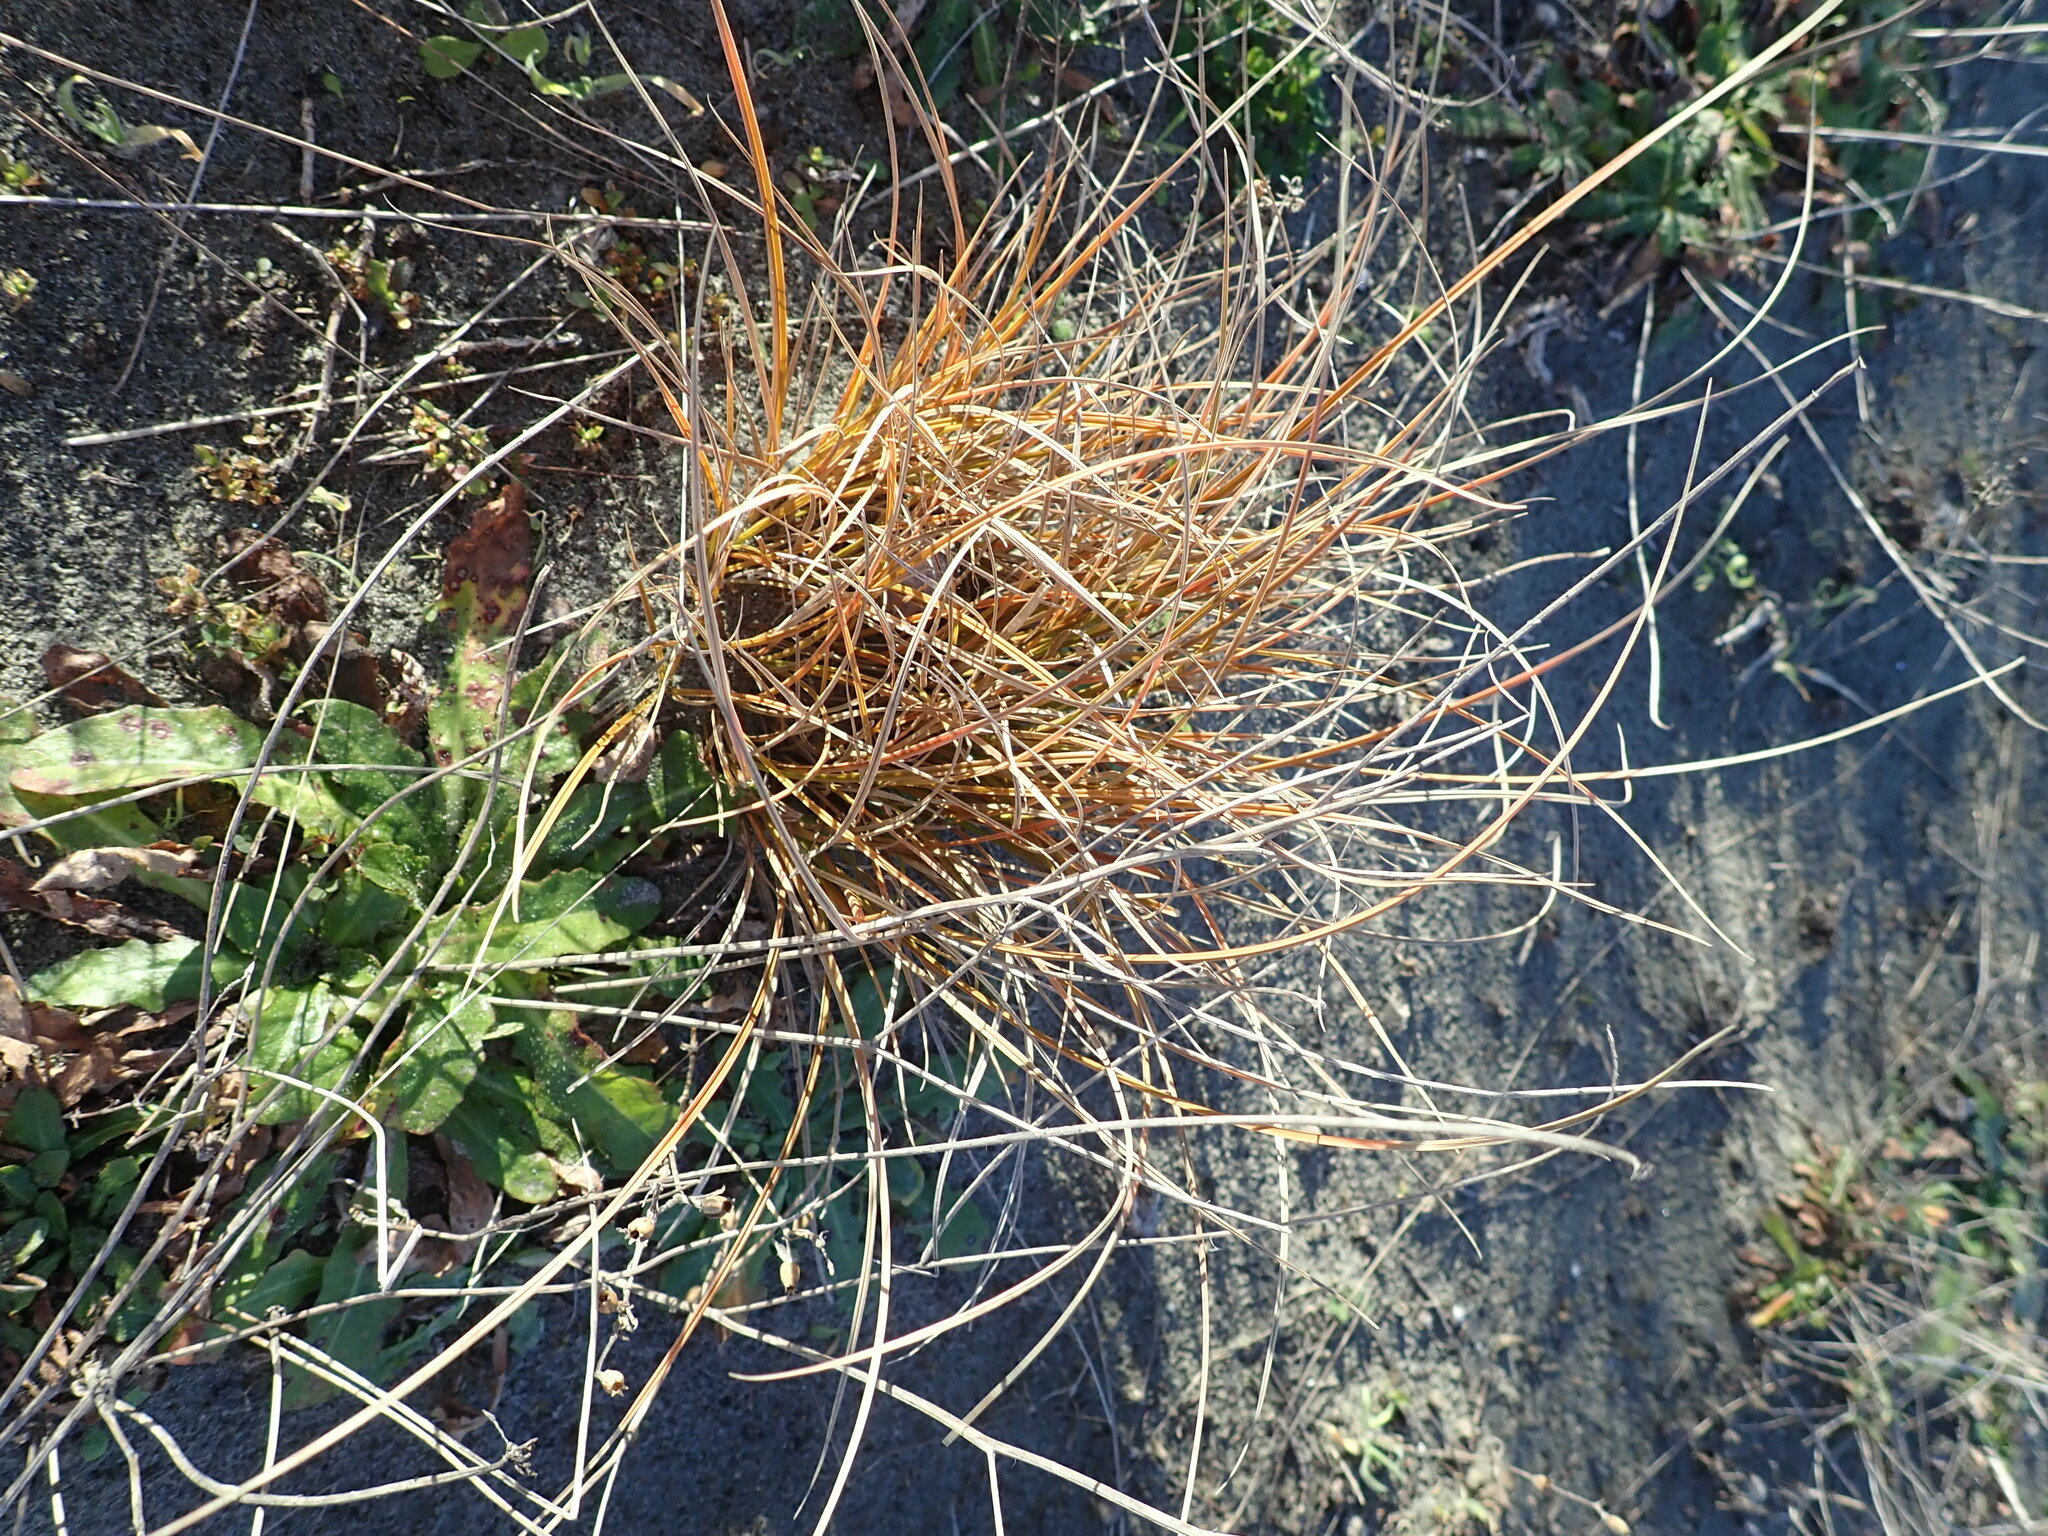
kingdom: Plantae
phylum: Tracheophyta
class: Liliopsida
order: Poales
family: Cyperaceae
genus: Carex
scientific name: Carex testacea
